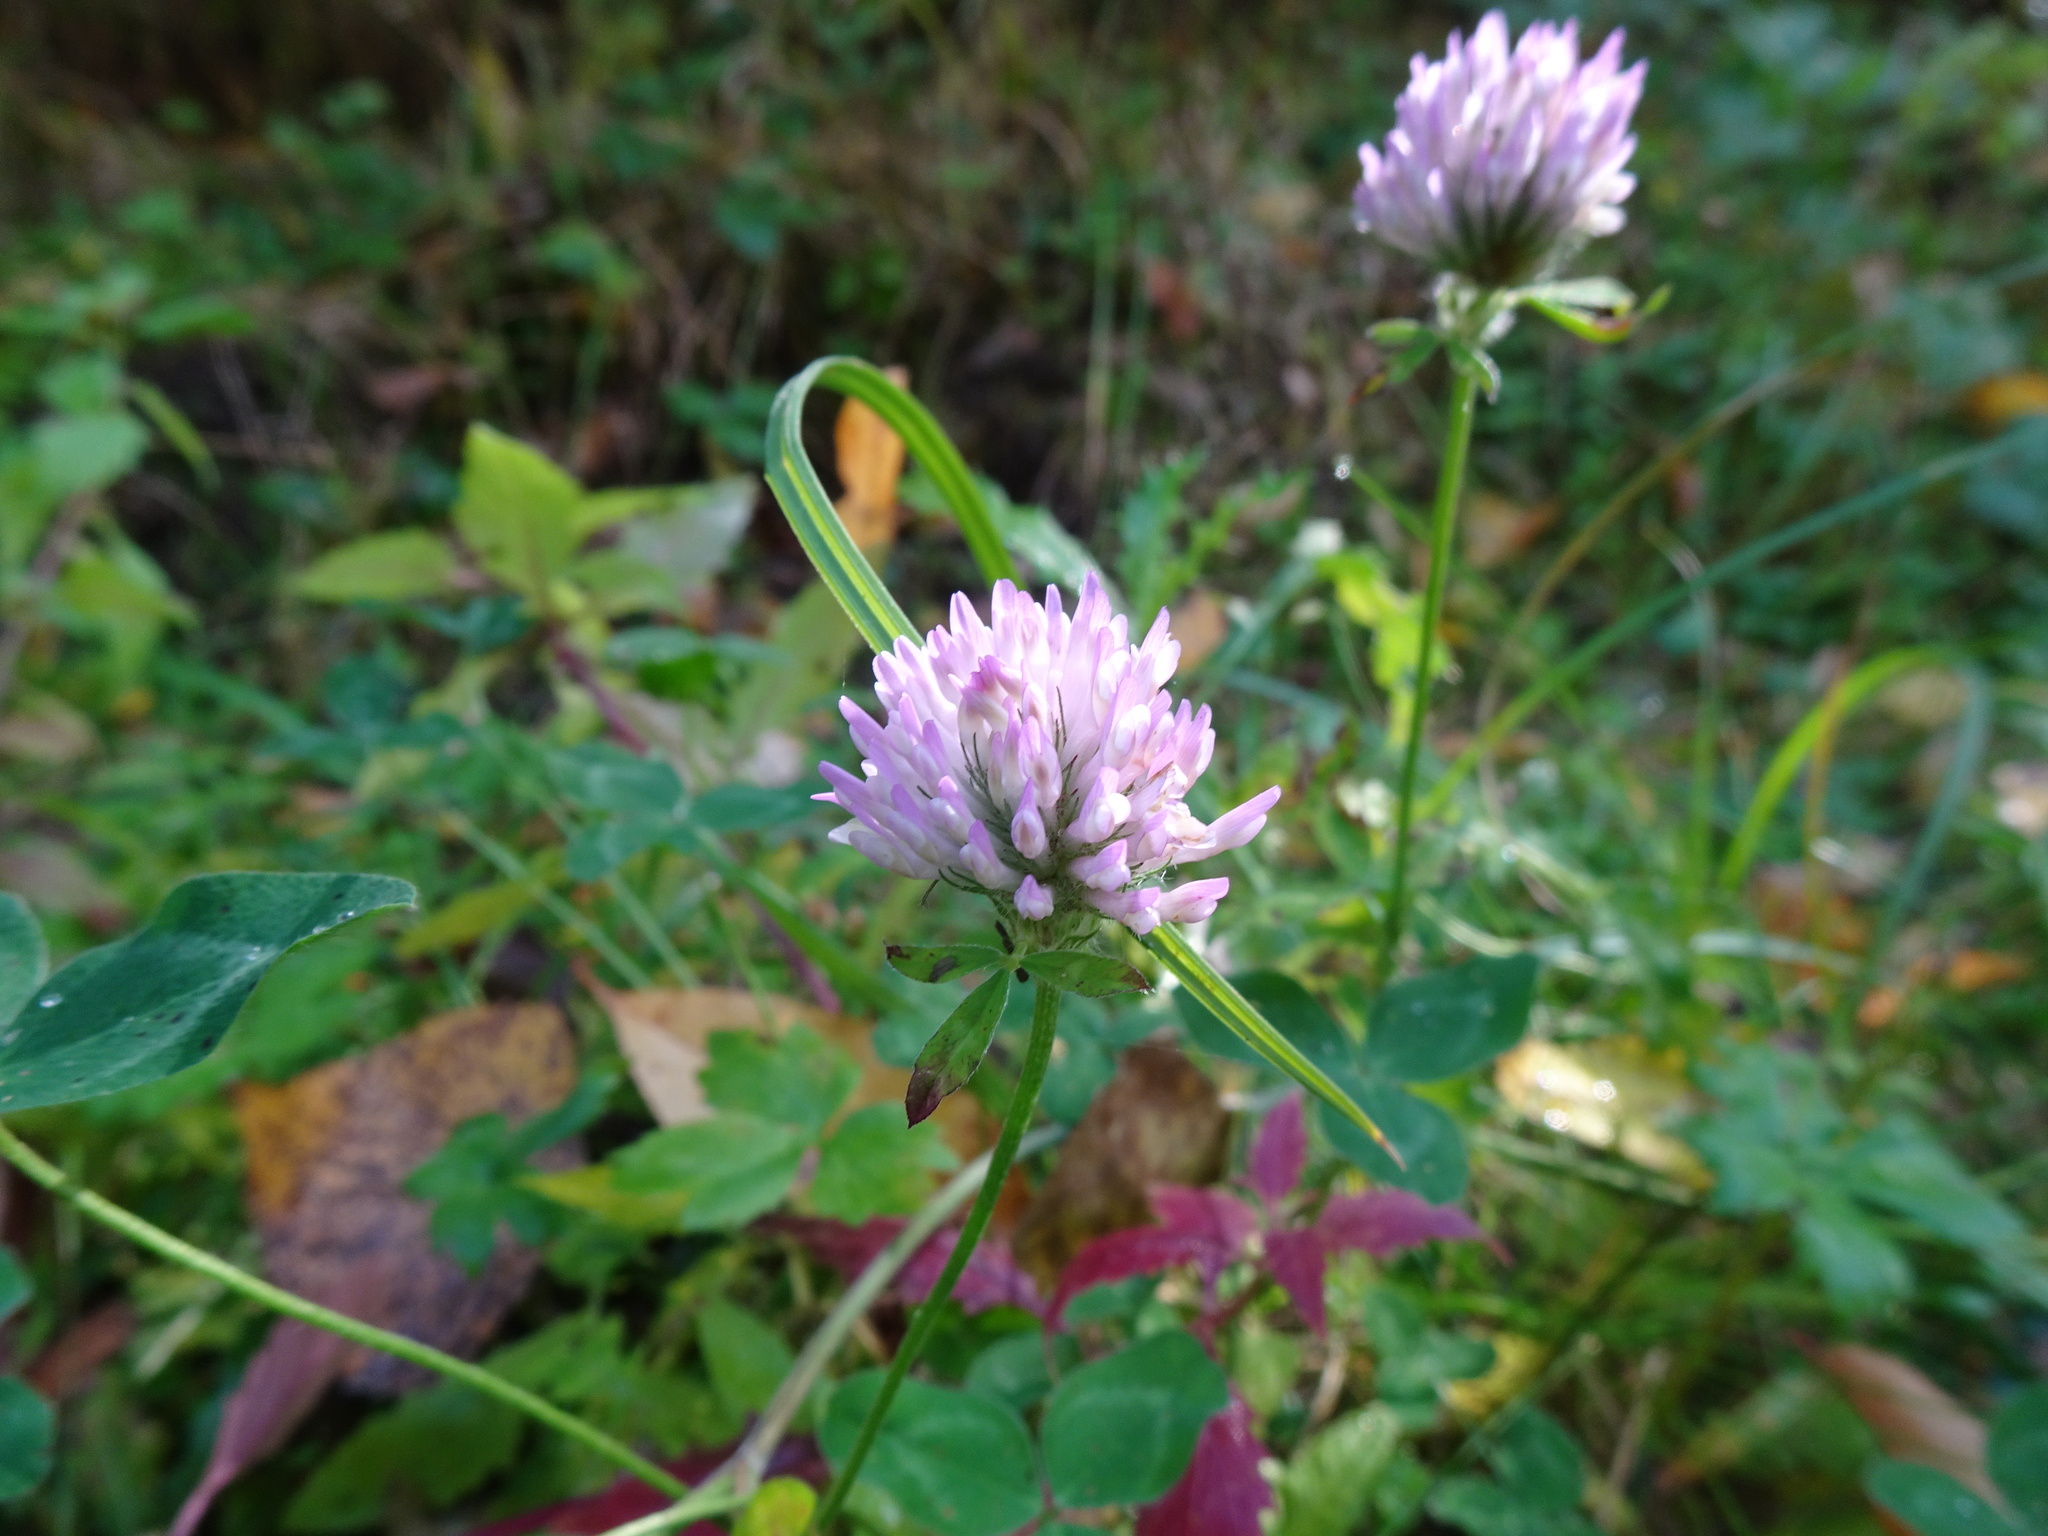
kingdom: Plantae
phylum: Tracheophyta
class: Magnoliopsida
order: Fabales
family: Fabaceae
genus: Trifolium
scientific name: Trifolium pratense
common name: Red clover
